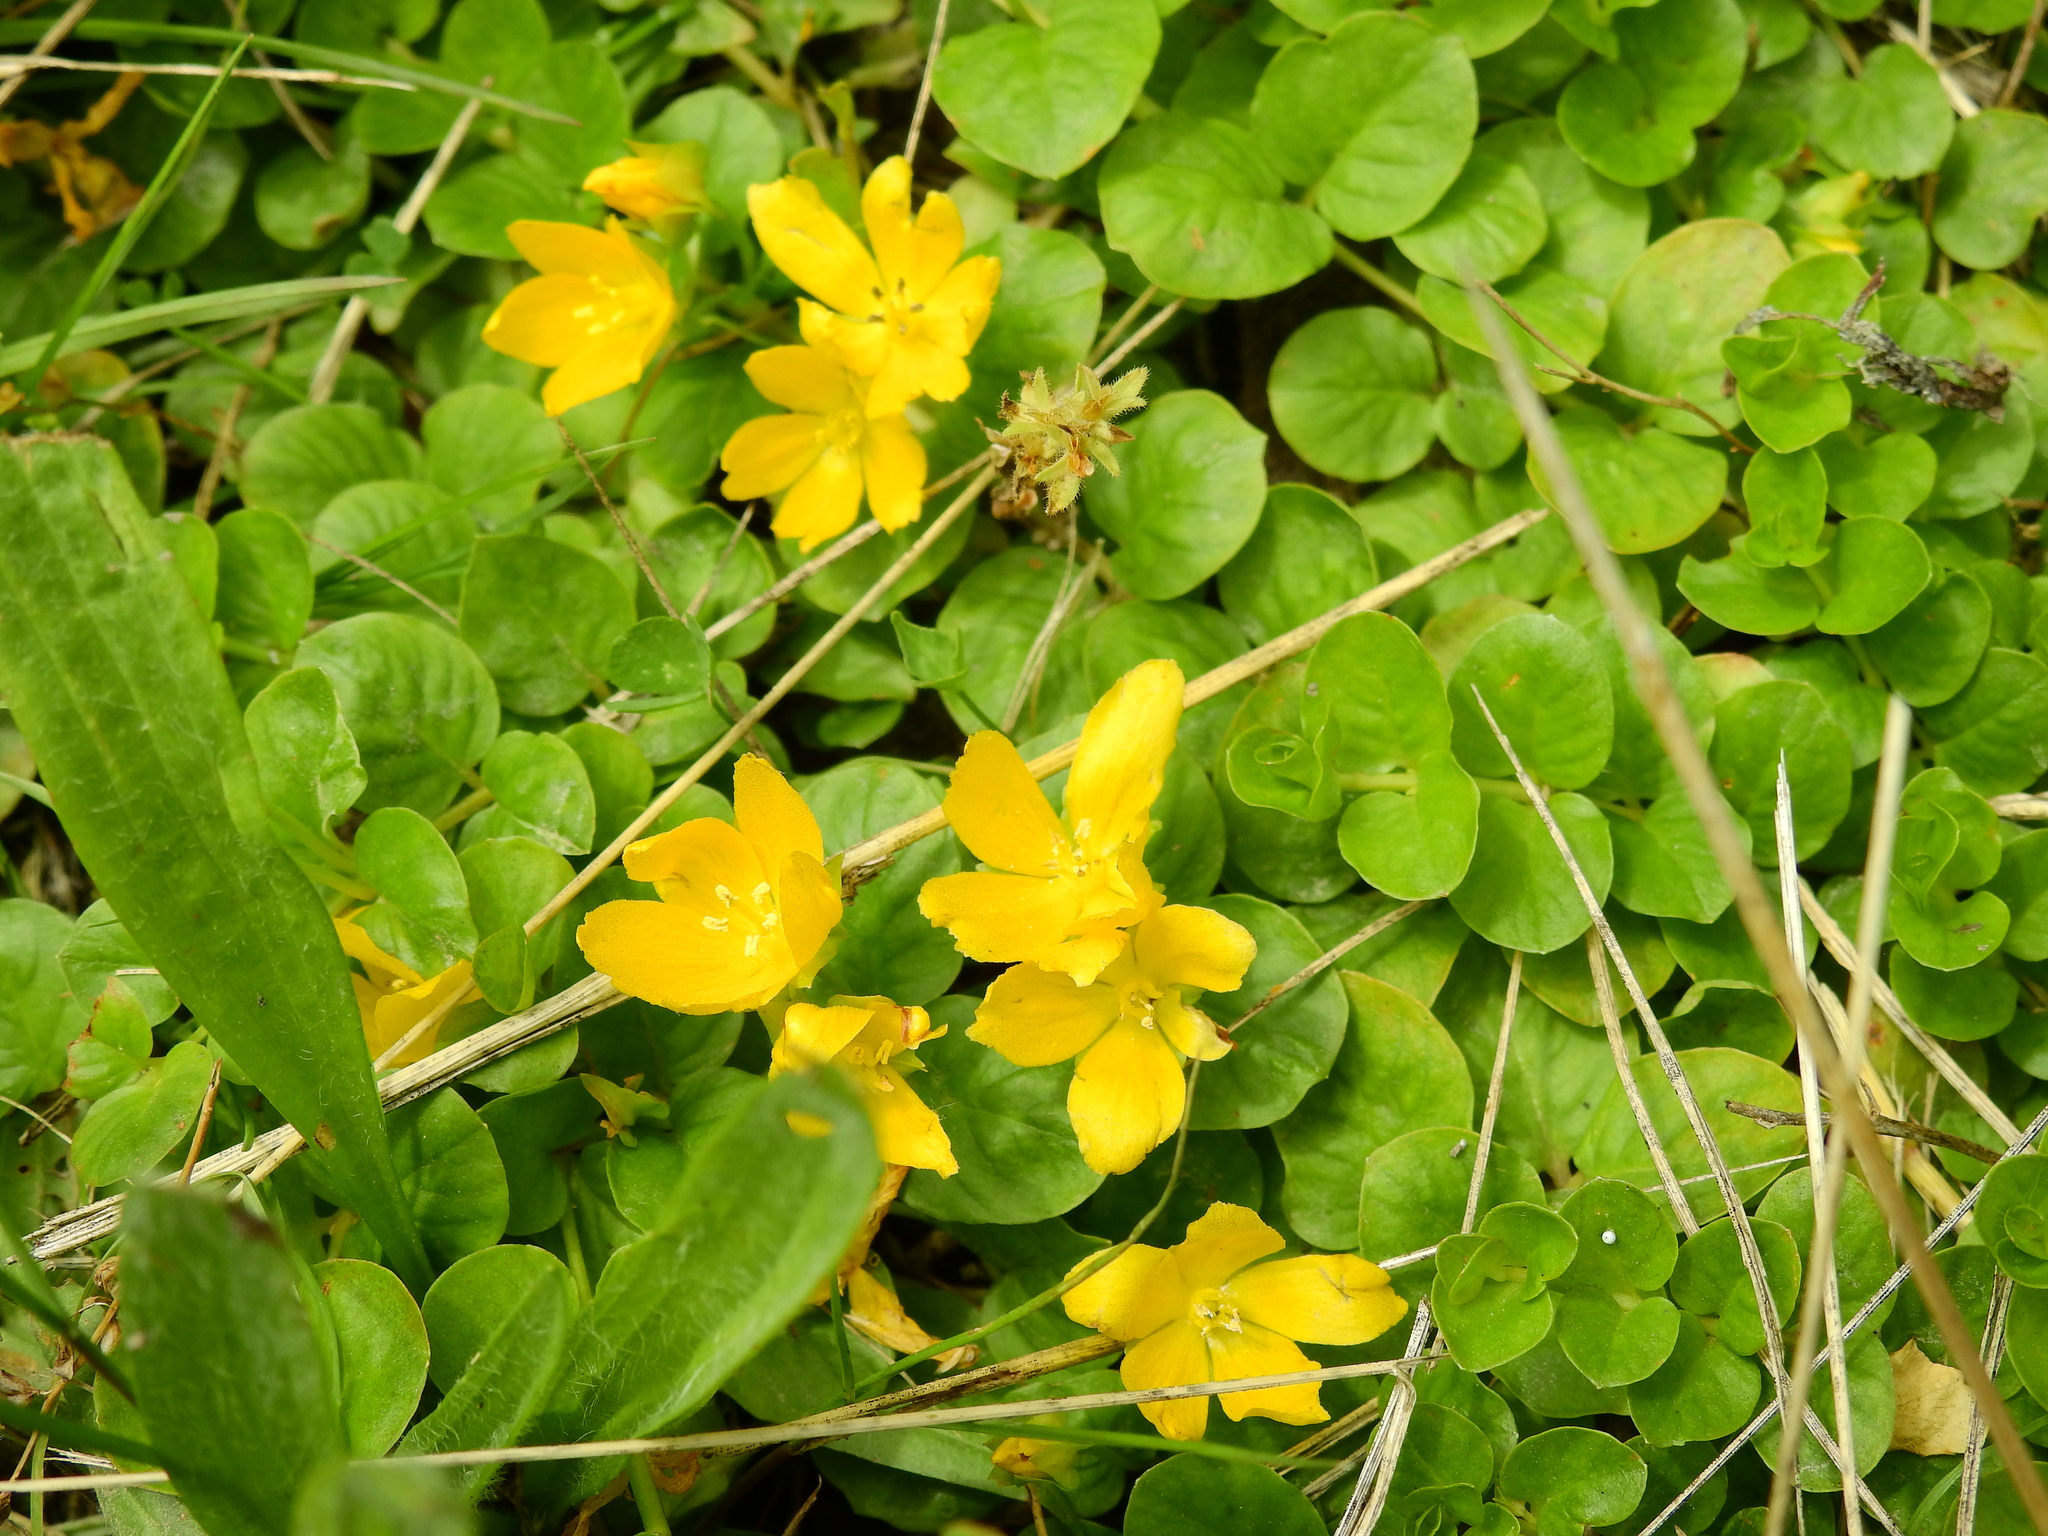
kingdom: Plantae
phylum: Tracheophyta
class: Magnoliopsida
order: Ericales
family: Primulaceae
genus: Lysimachia
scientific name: Lysimachia nummularia
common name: Moneywort
